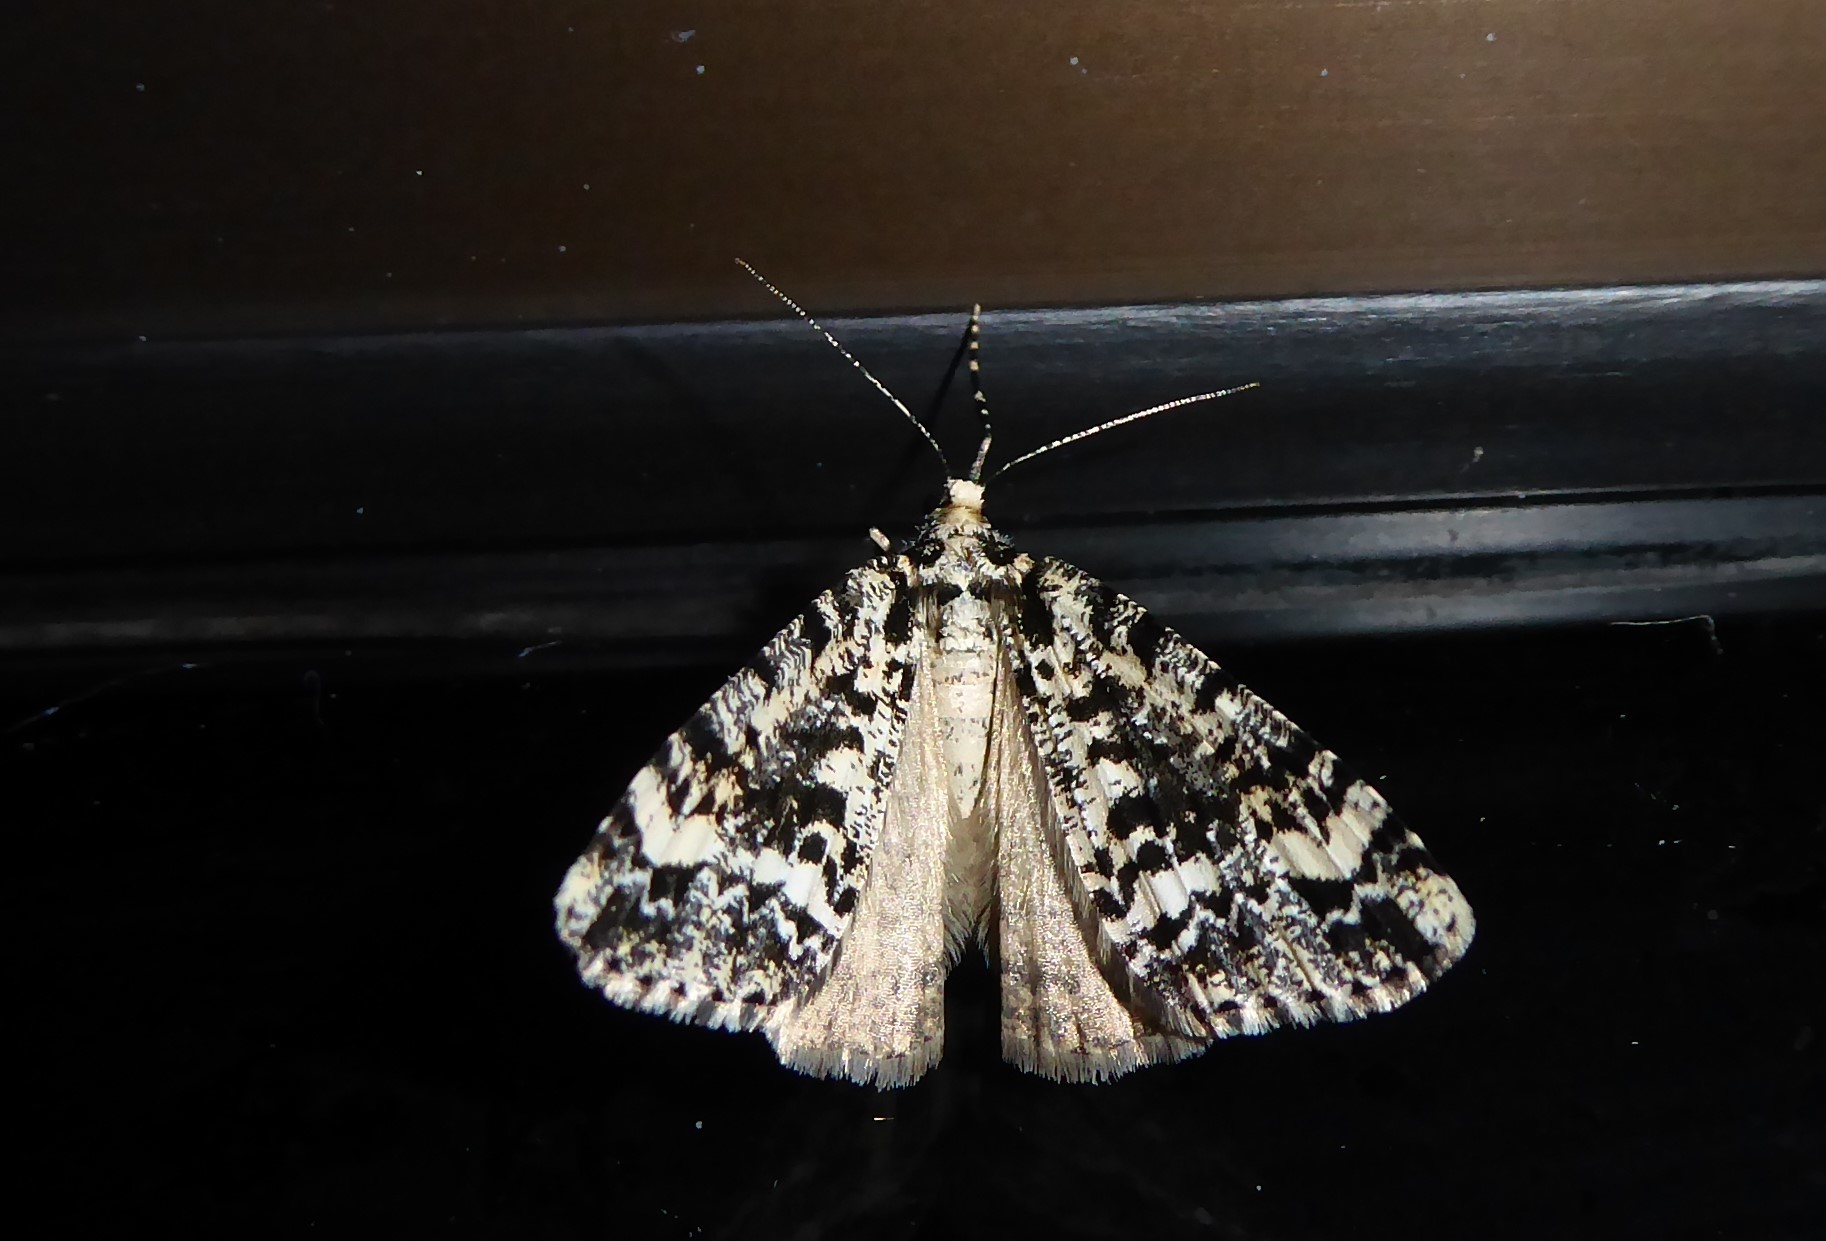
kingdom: Animalia
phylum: Arthropoda
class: Insecta
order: Lepidoptera
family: Geometridae
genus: Pseudocoremia
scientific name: Pseudocoremia leucelaea
